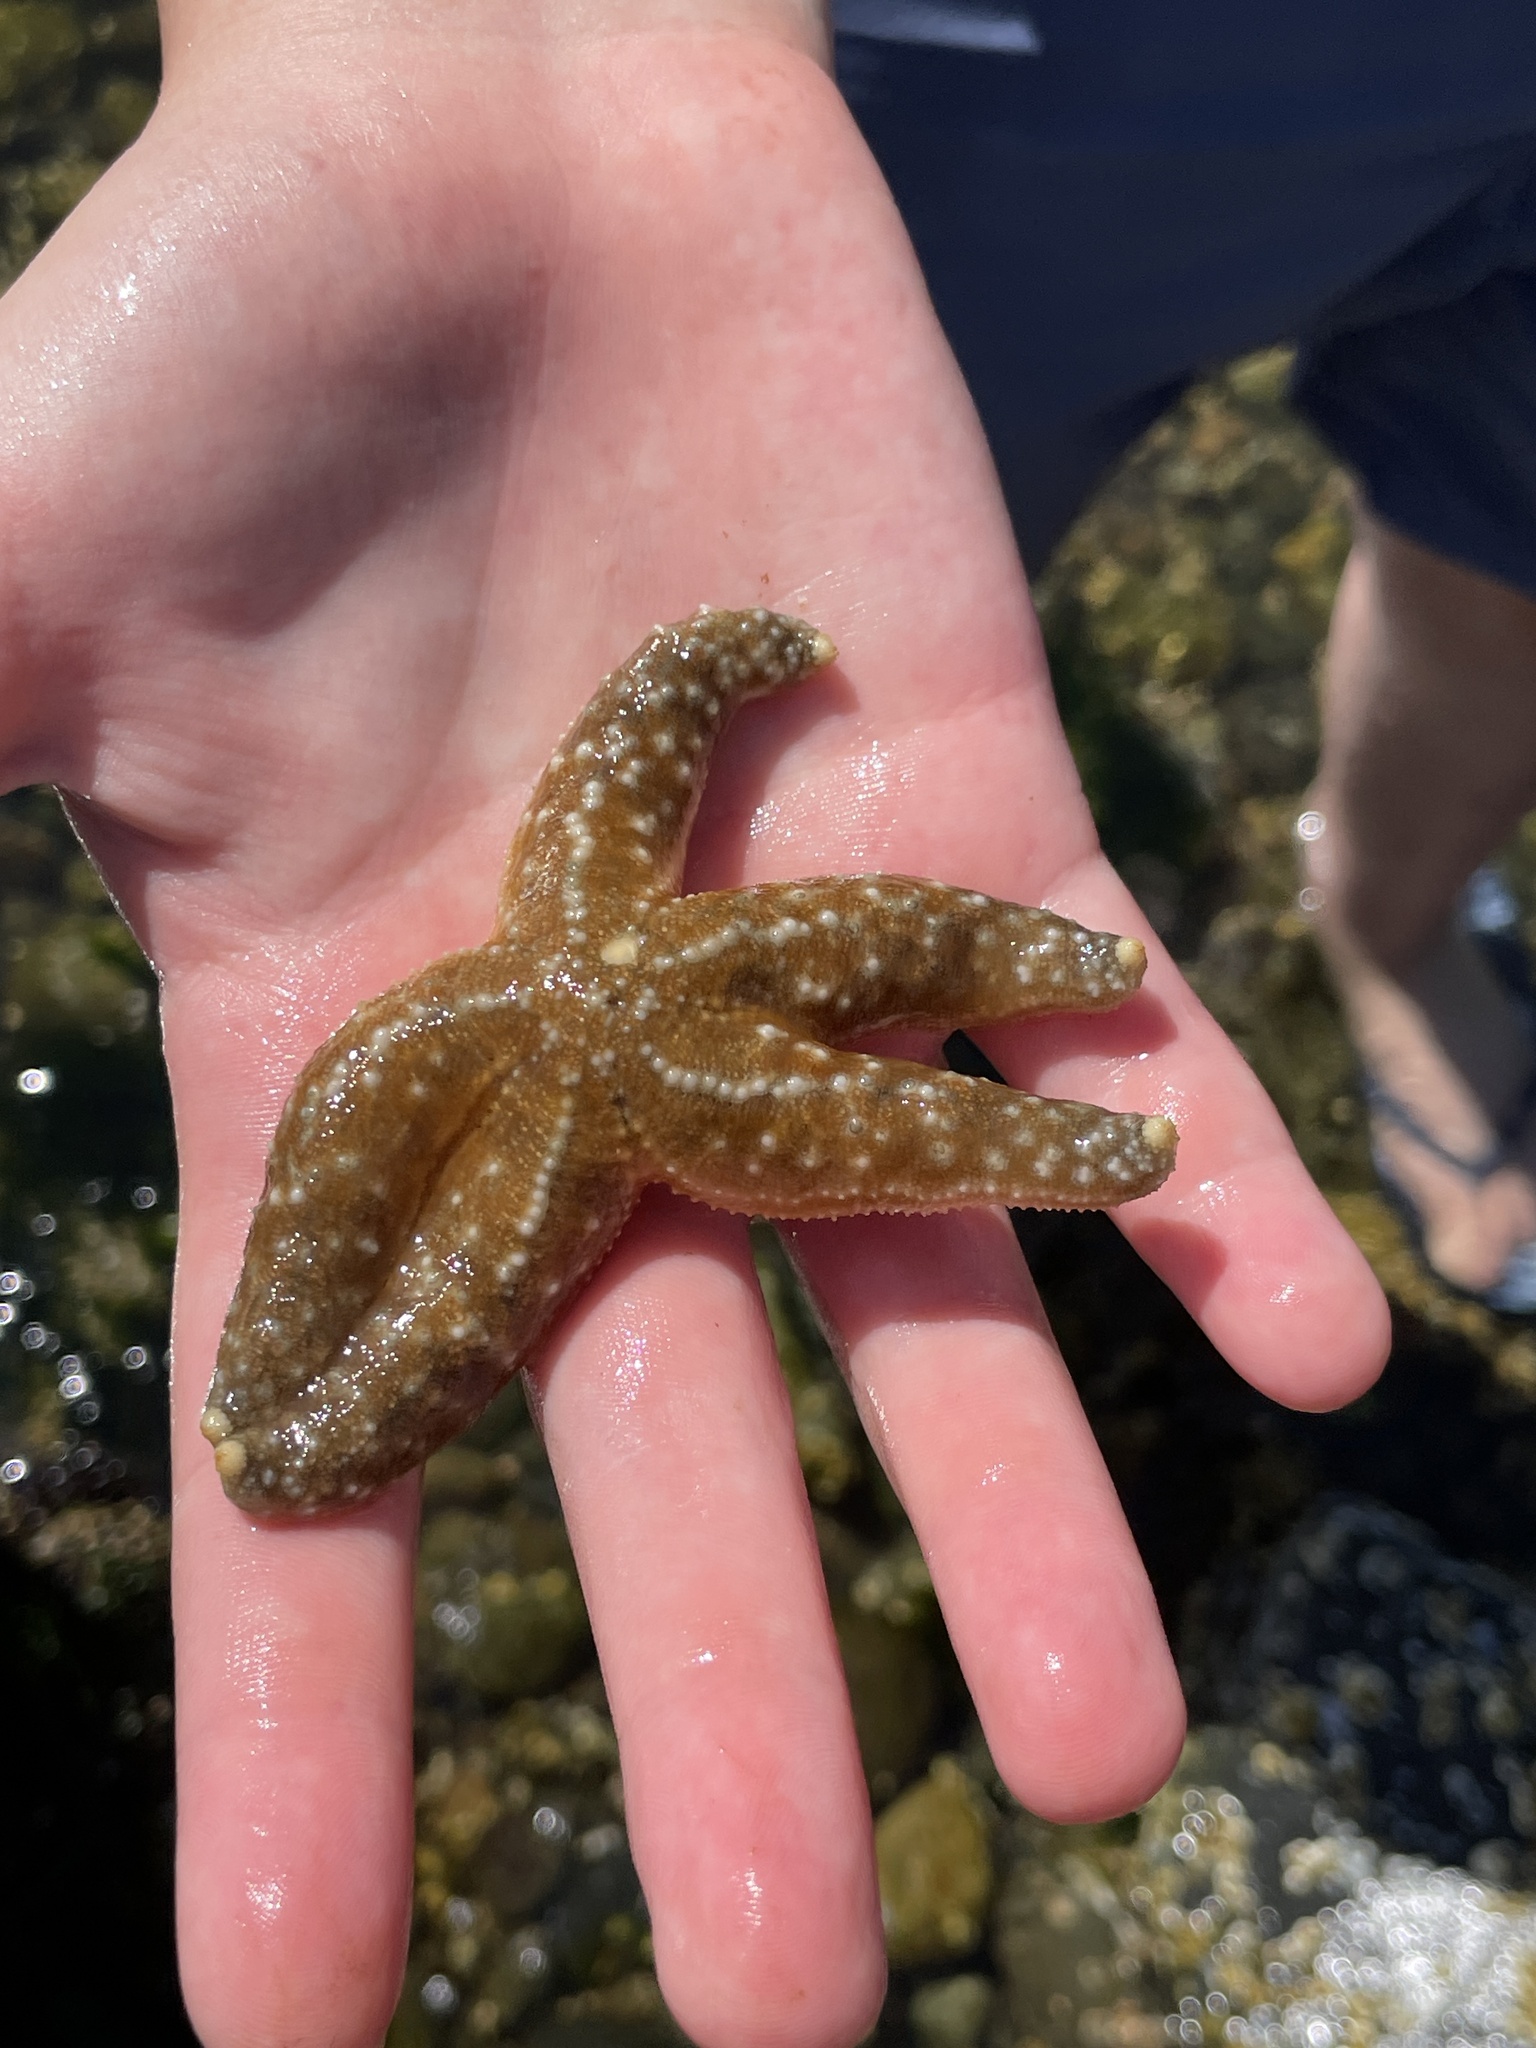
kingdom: Animalia
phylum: Echinodermata
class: Asteroidea
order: Forcipulatida
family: Asteriidae
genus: Evasterias
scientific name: Evasterias troschelii
